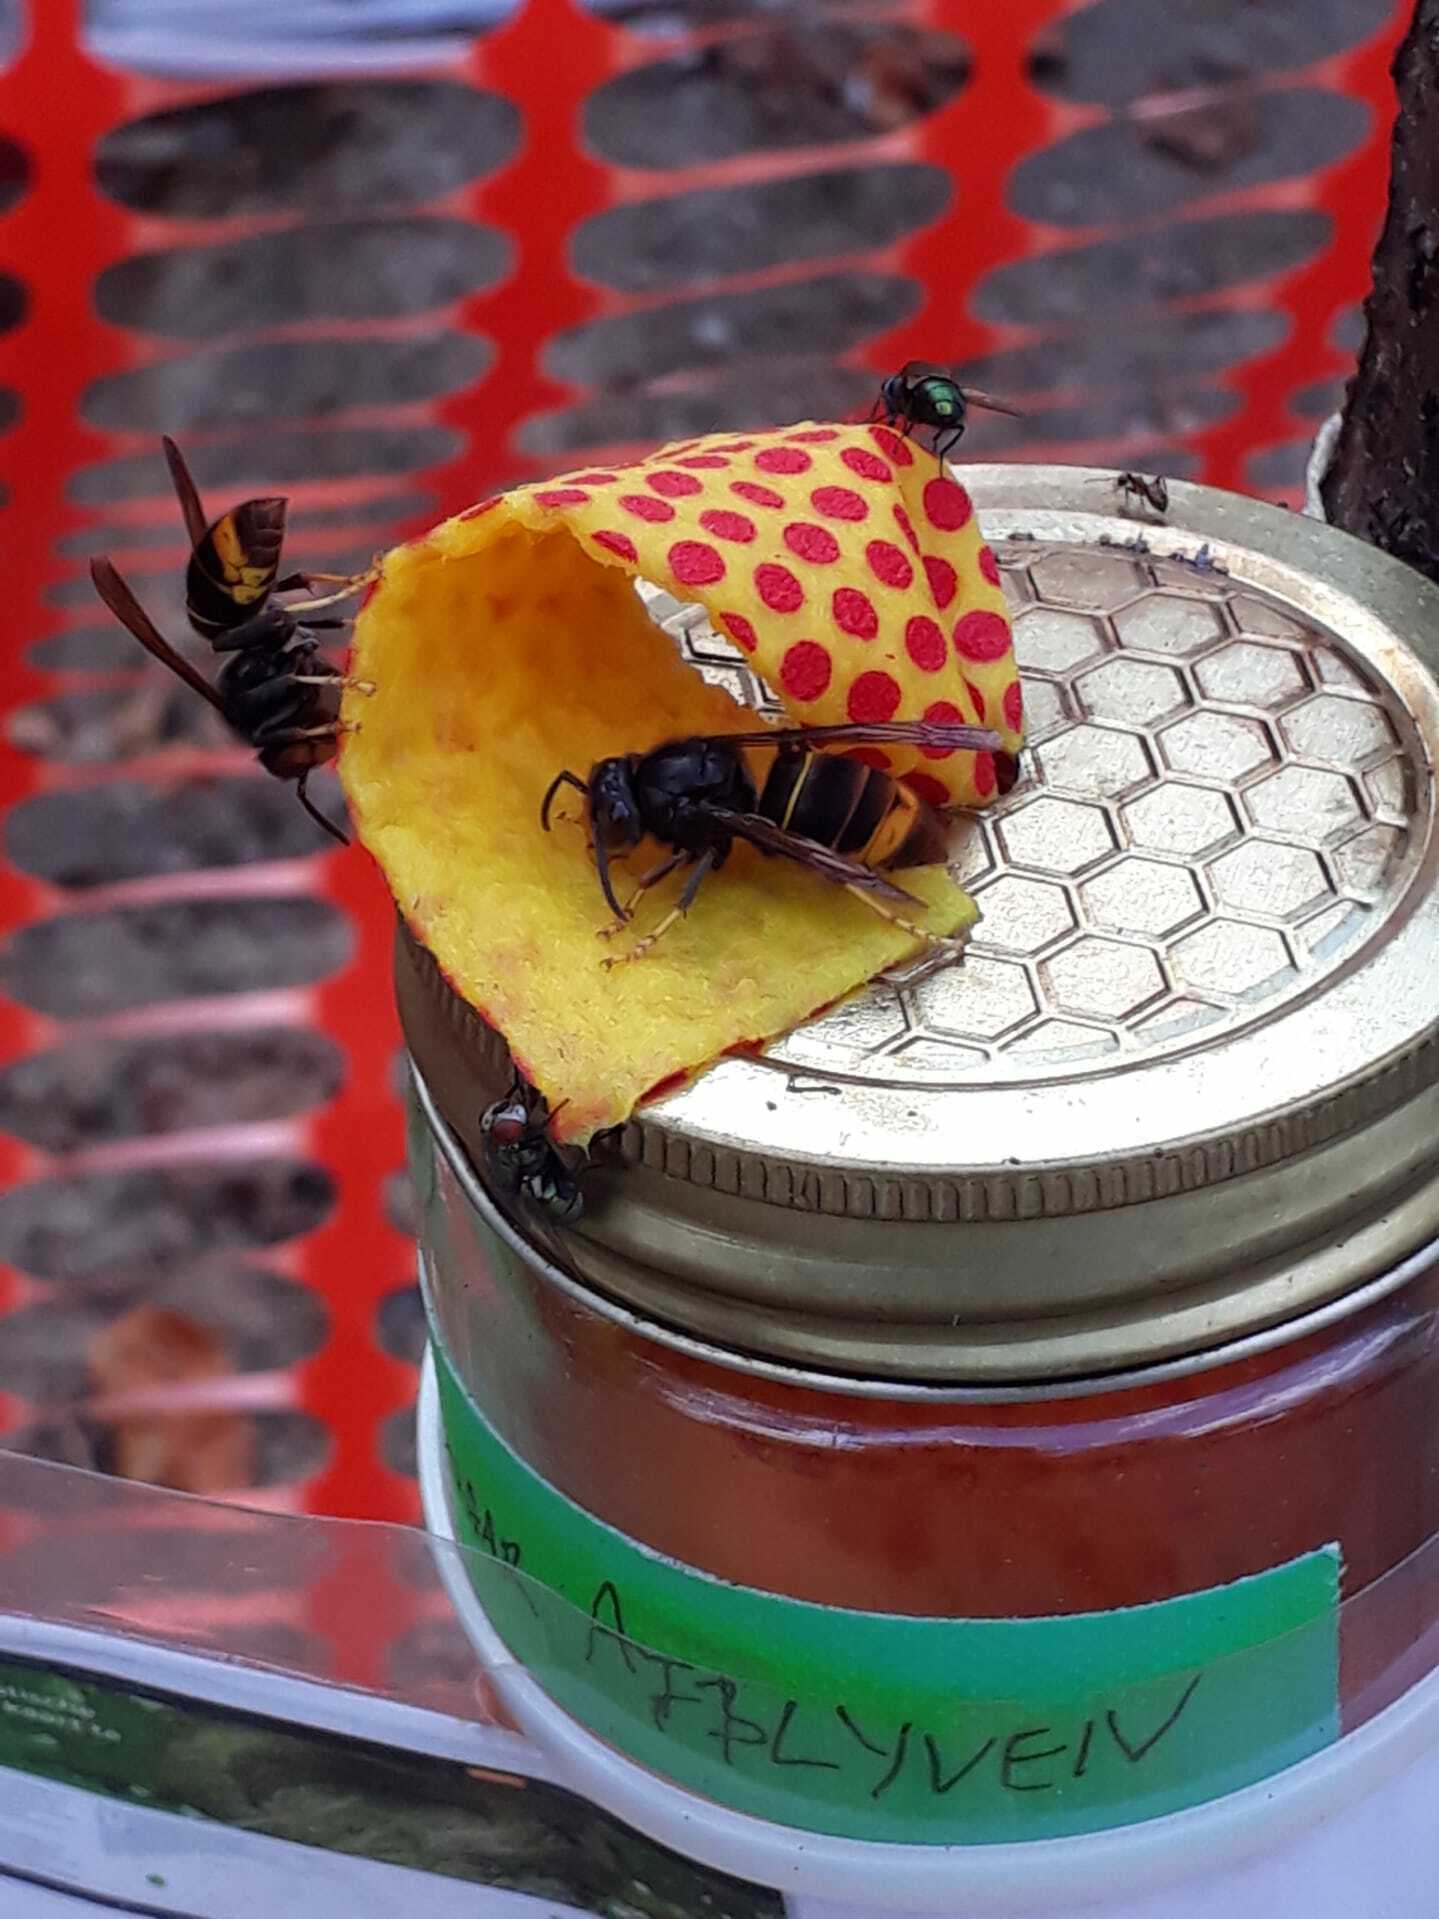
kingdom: Animalia
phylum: Arthropoda
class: Insecta
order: Hymenoptera
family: Vespidae
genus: Vespa
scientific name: Vespa velutina
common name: Asian hornet
